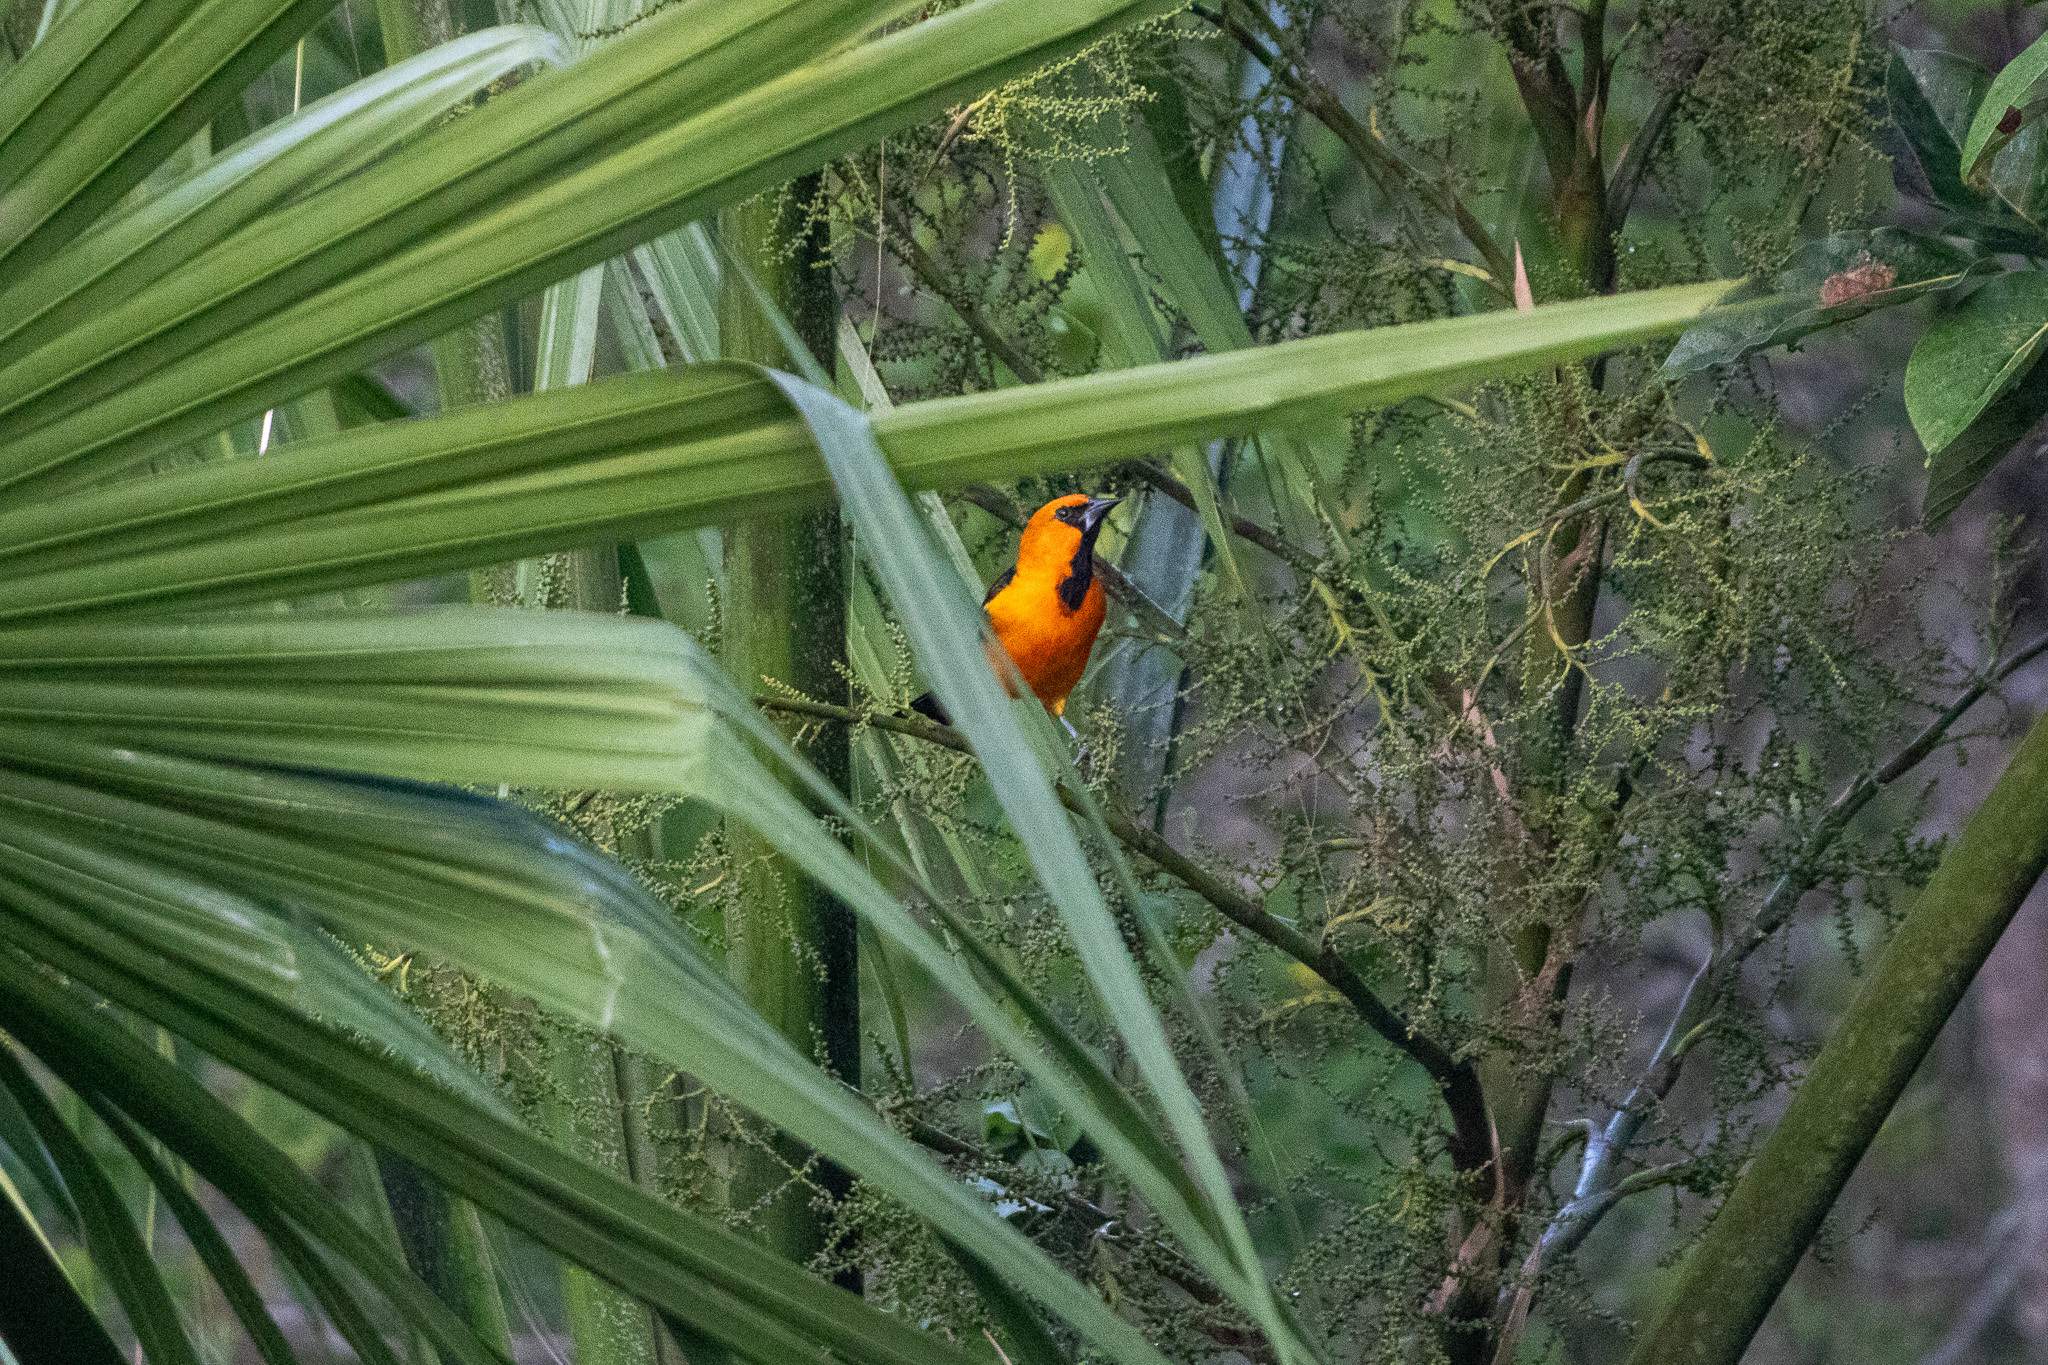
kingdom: Animalia
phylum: Chordata
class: Aves
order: Passeriformes
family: Icteridae
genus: Icterus
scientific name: Icterus gularis
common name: Altamira oriole
